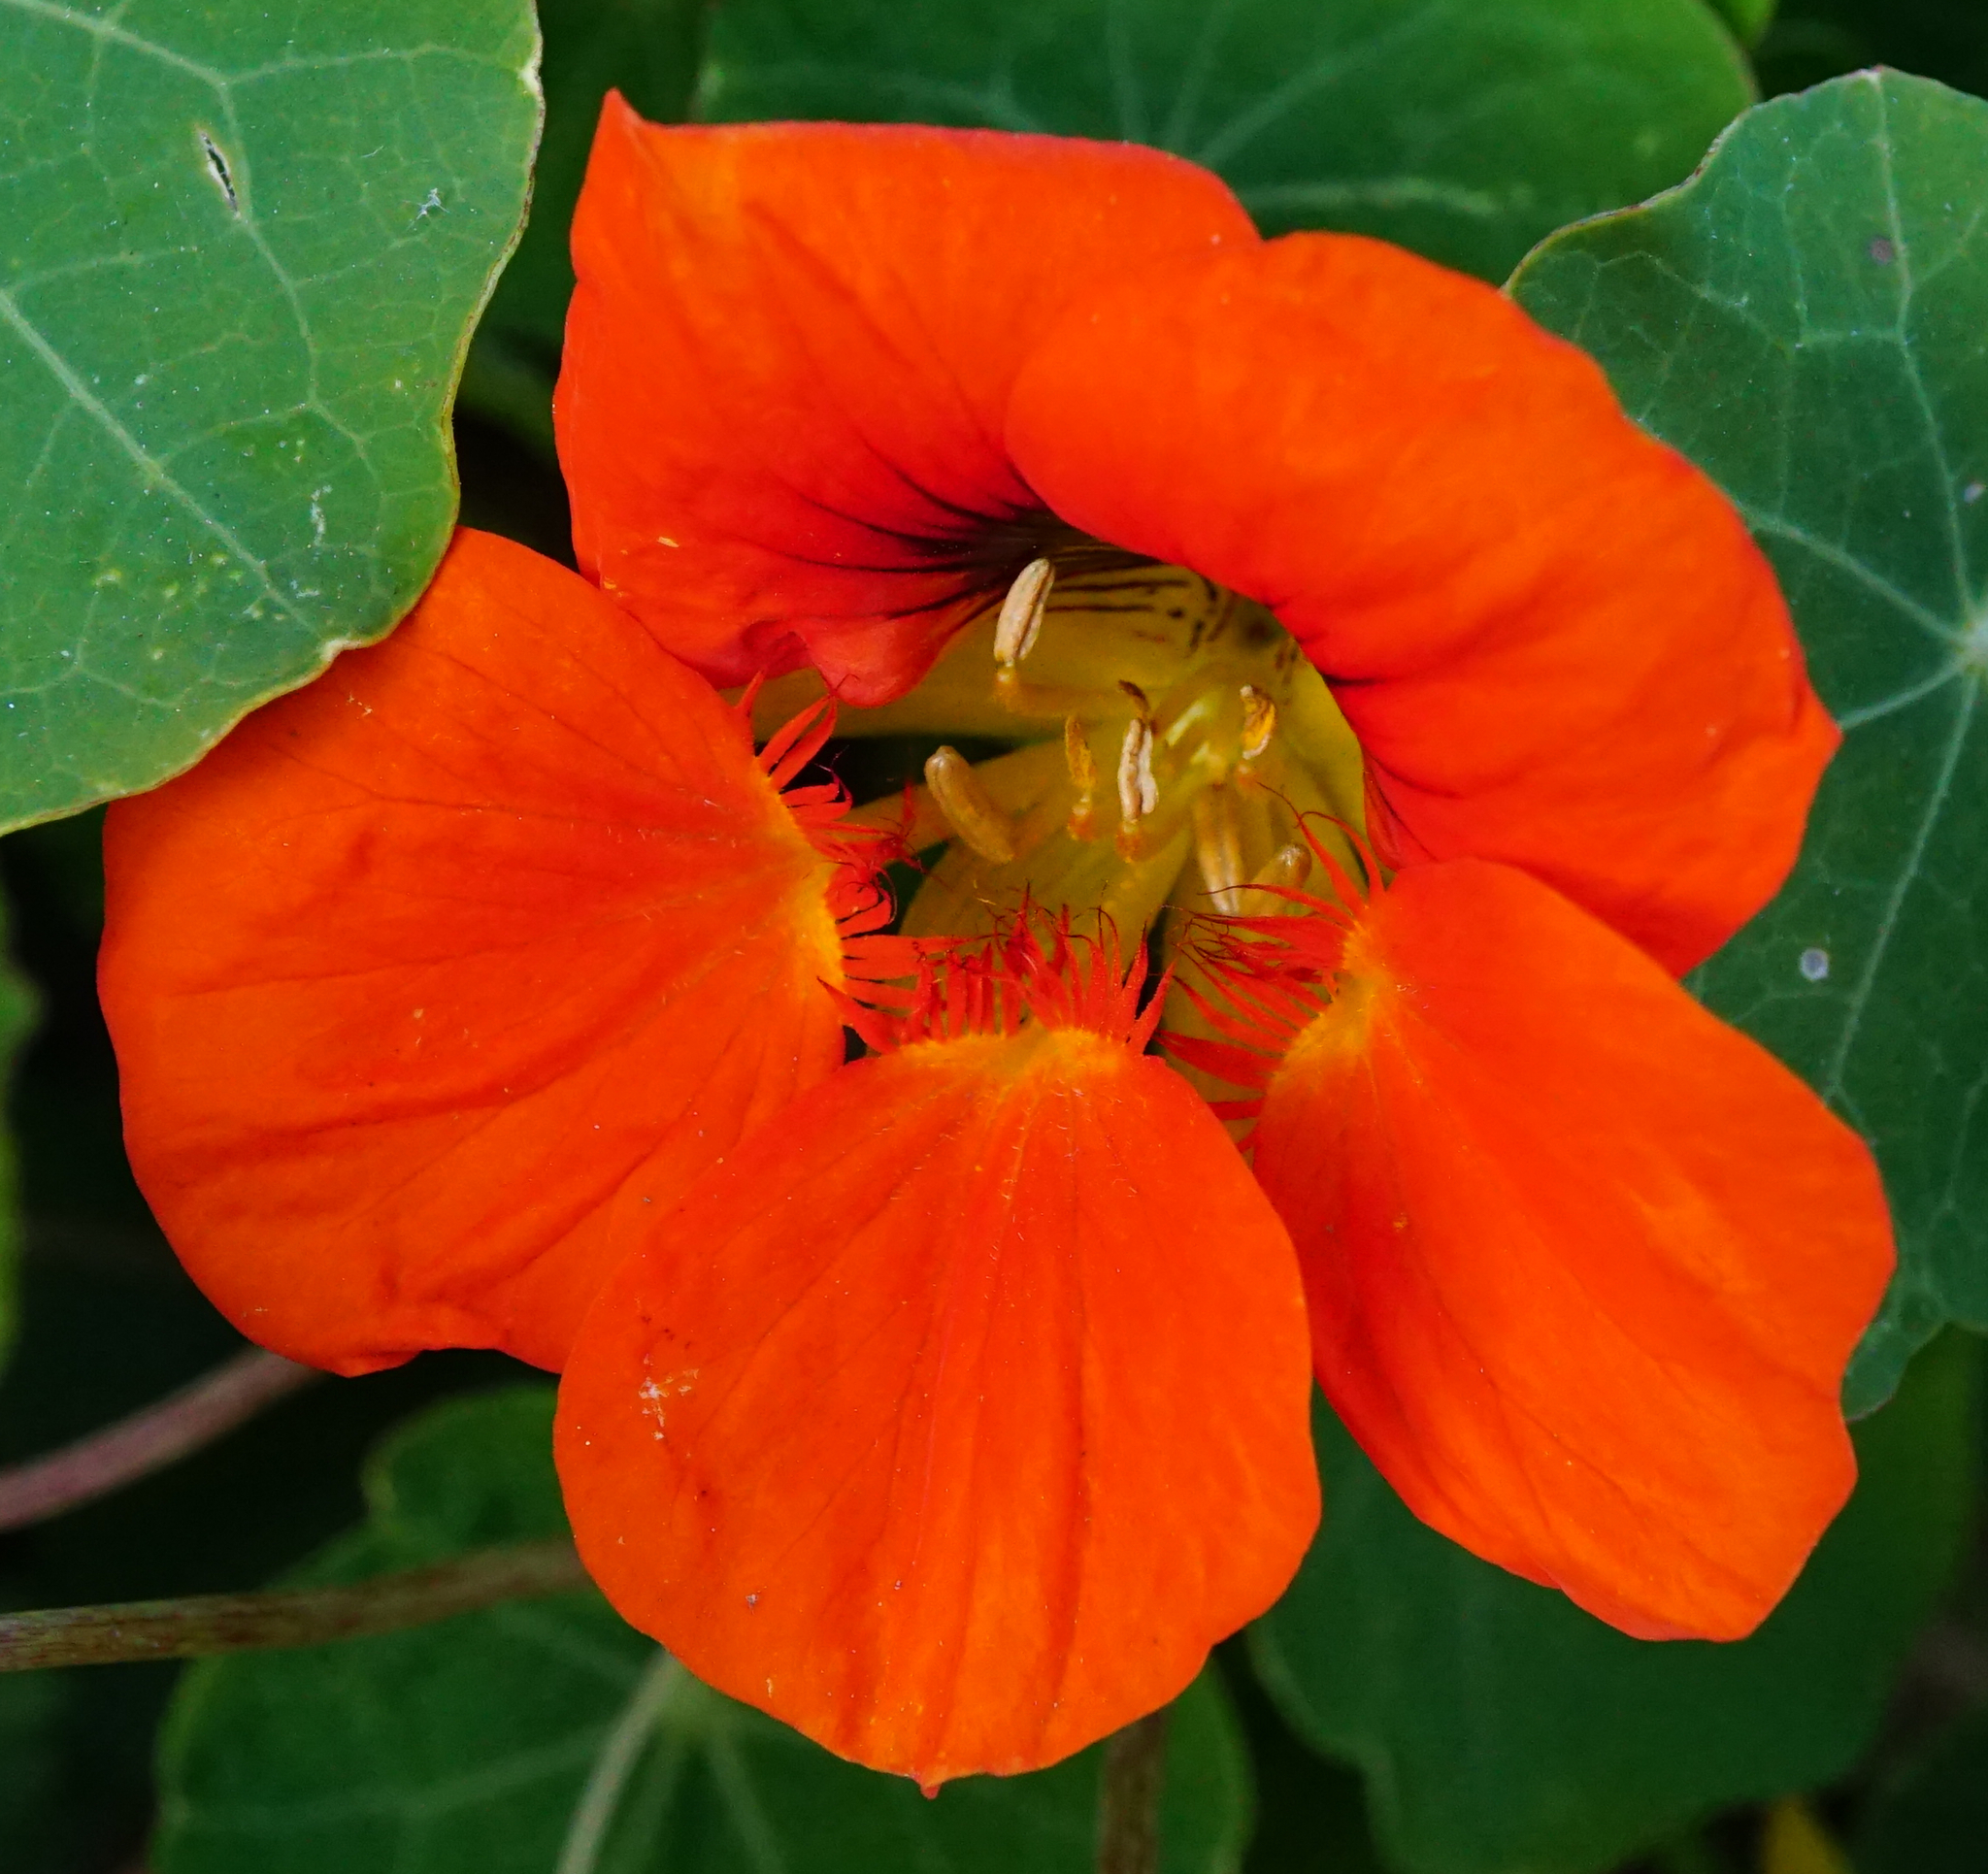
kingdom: Plantae
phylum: Tracheophyta
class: Magnoliopsida
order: Brassicales
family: Tropaeolaceae
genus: Tropaeolum
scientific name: Tropaeolum majus
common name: Nasturtium
